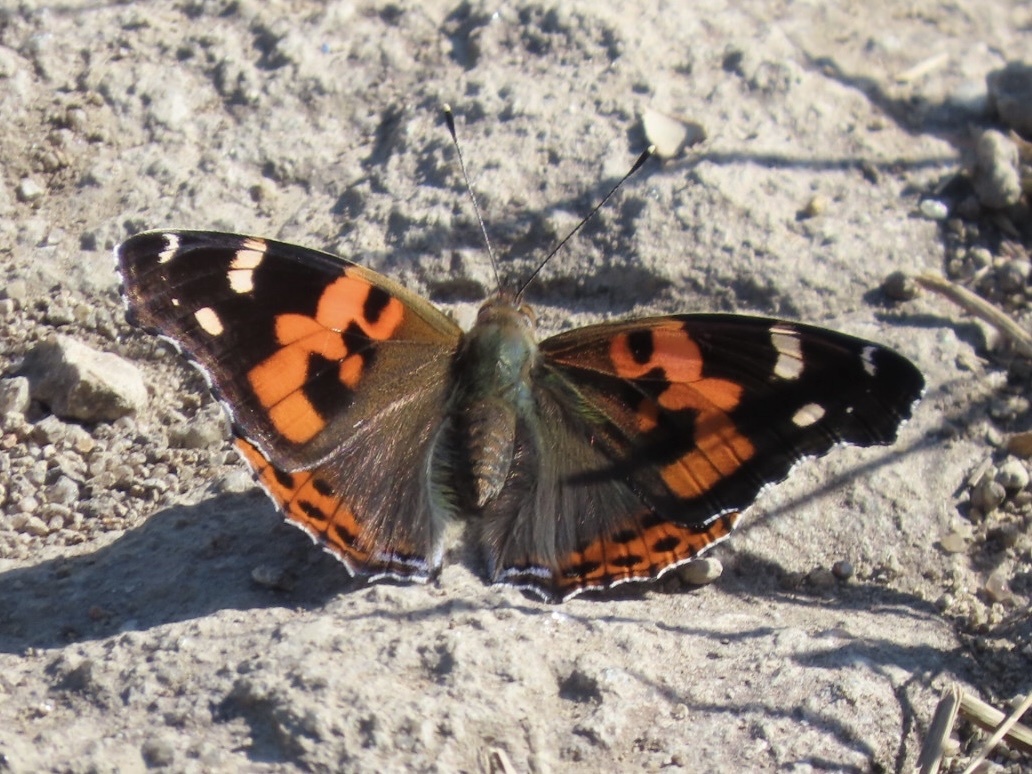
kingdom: Animalia
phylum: Arthropoda
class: Insecta
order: Lepidoptera
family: Nymphalidae
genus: Vanessa
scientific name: Vanessa indica
